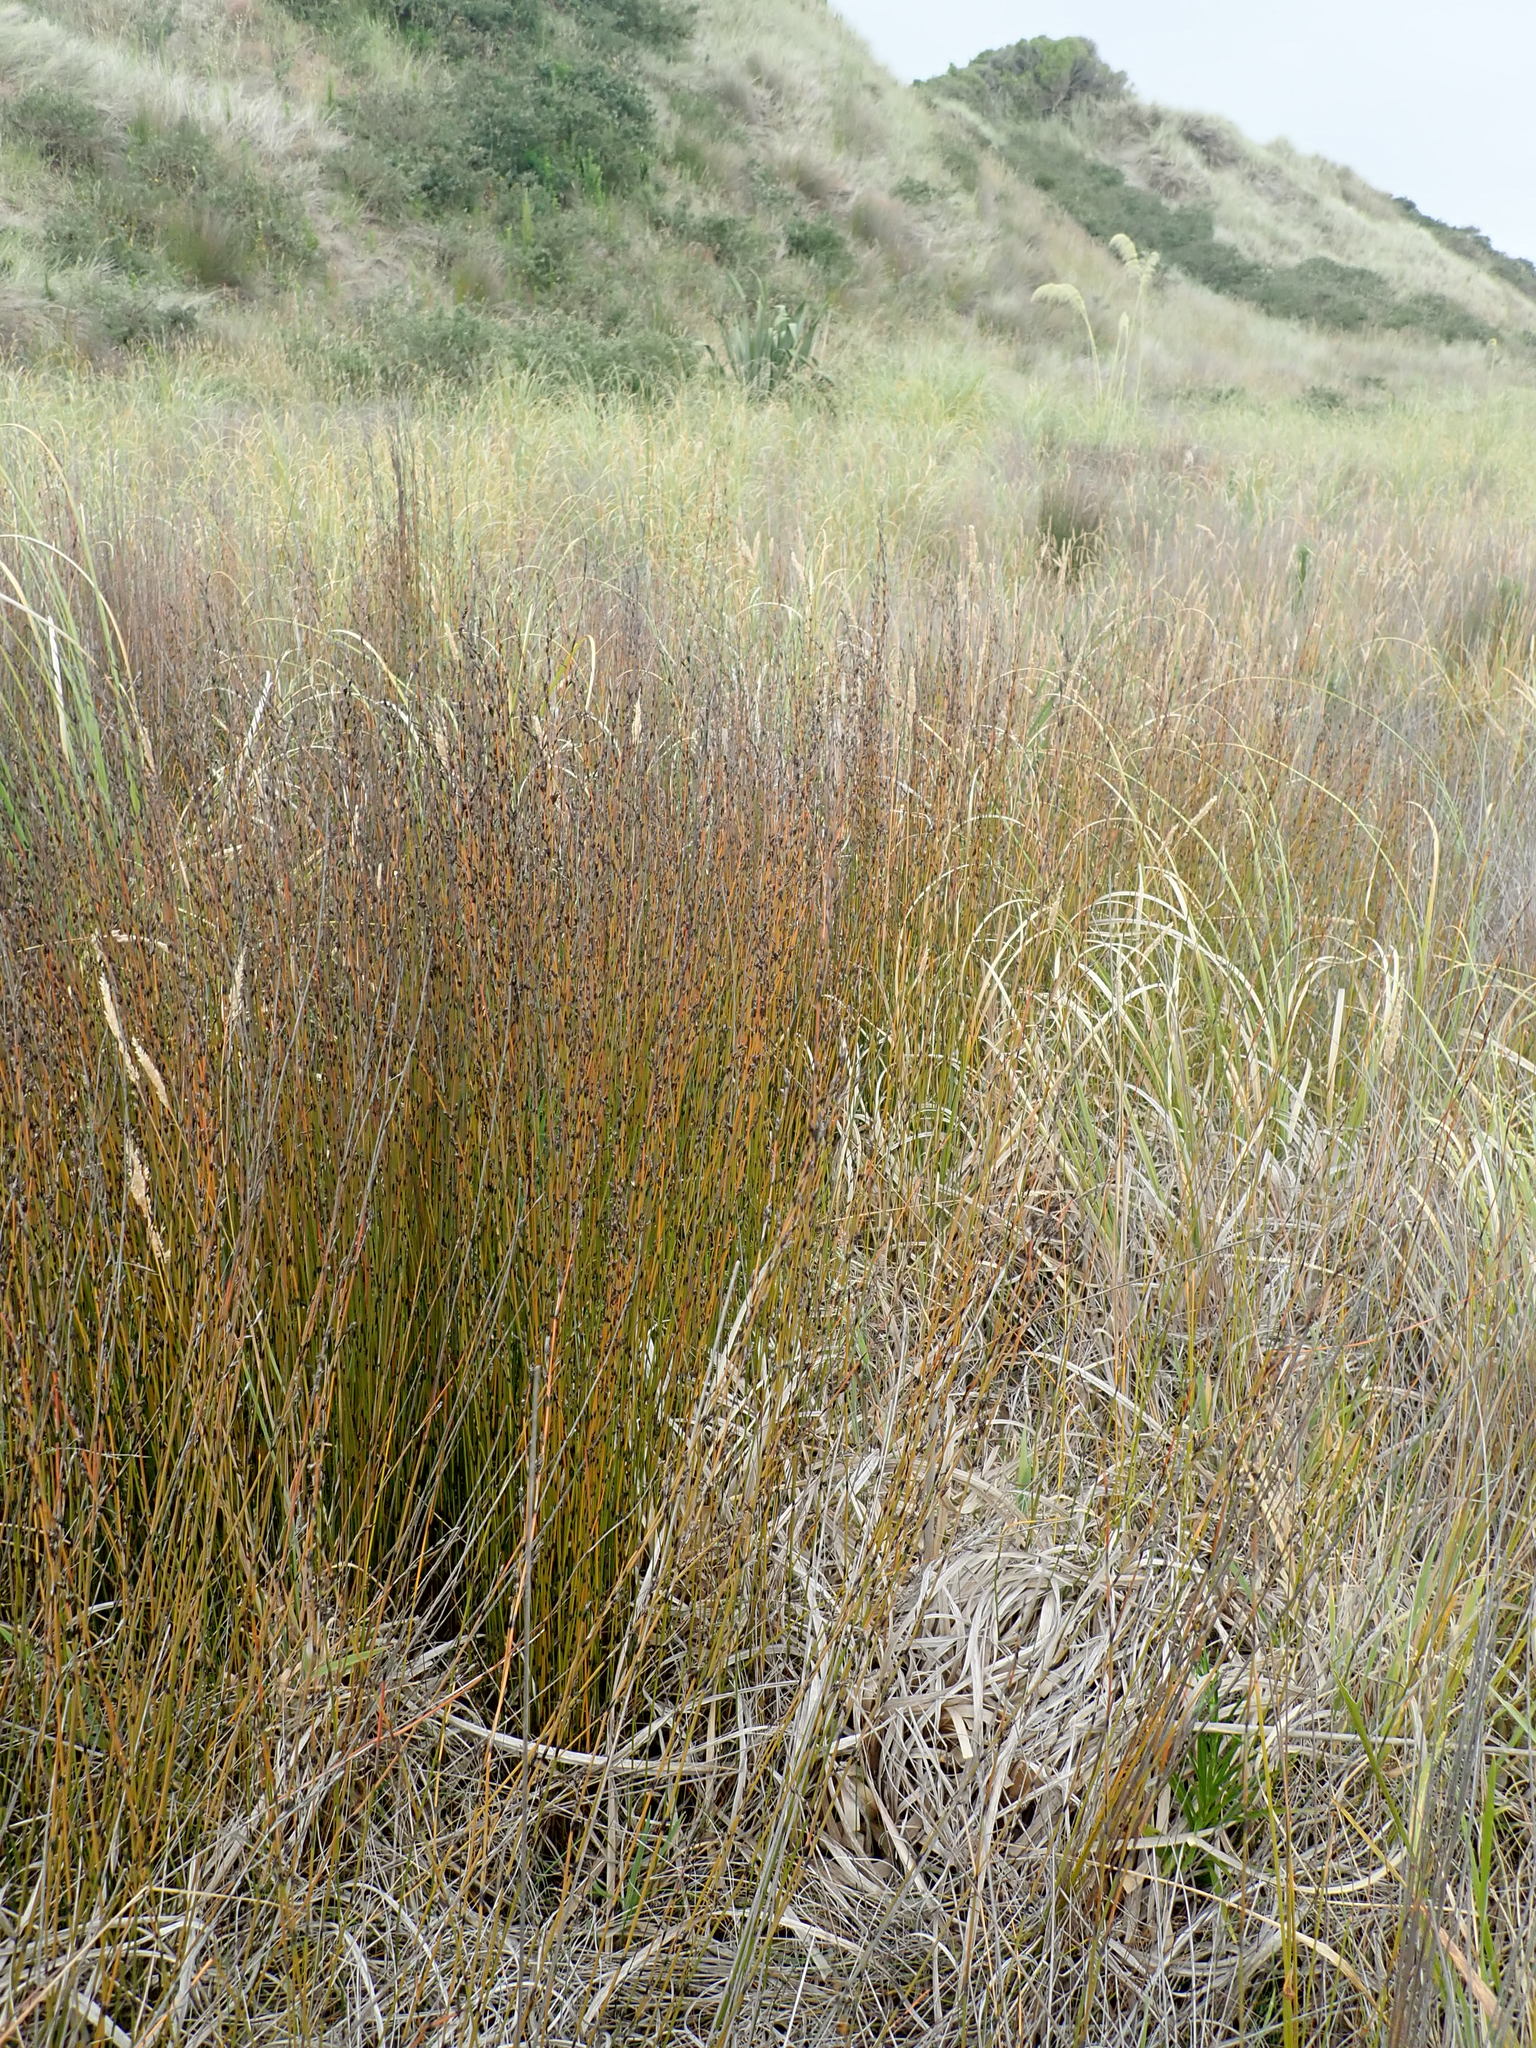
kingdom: Plantae
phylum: Tracheophyta
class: Liliopsida
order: Poales
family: Restionaceae
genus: Apodasmia
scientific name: Apodasmia similis
